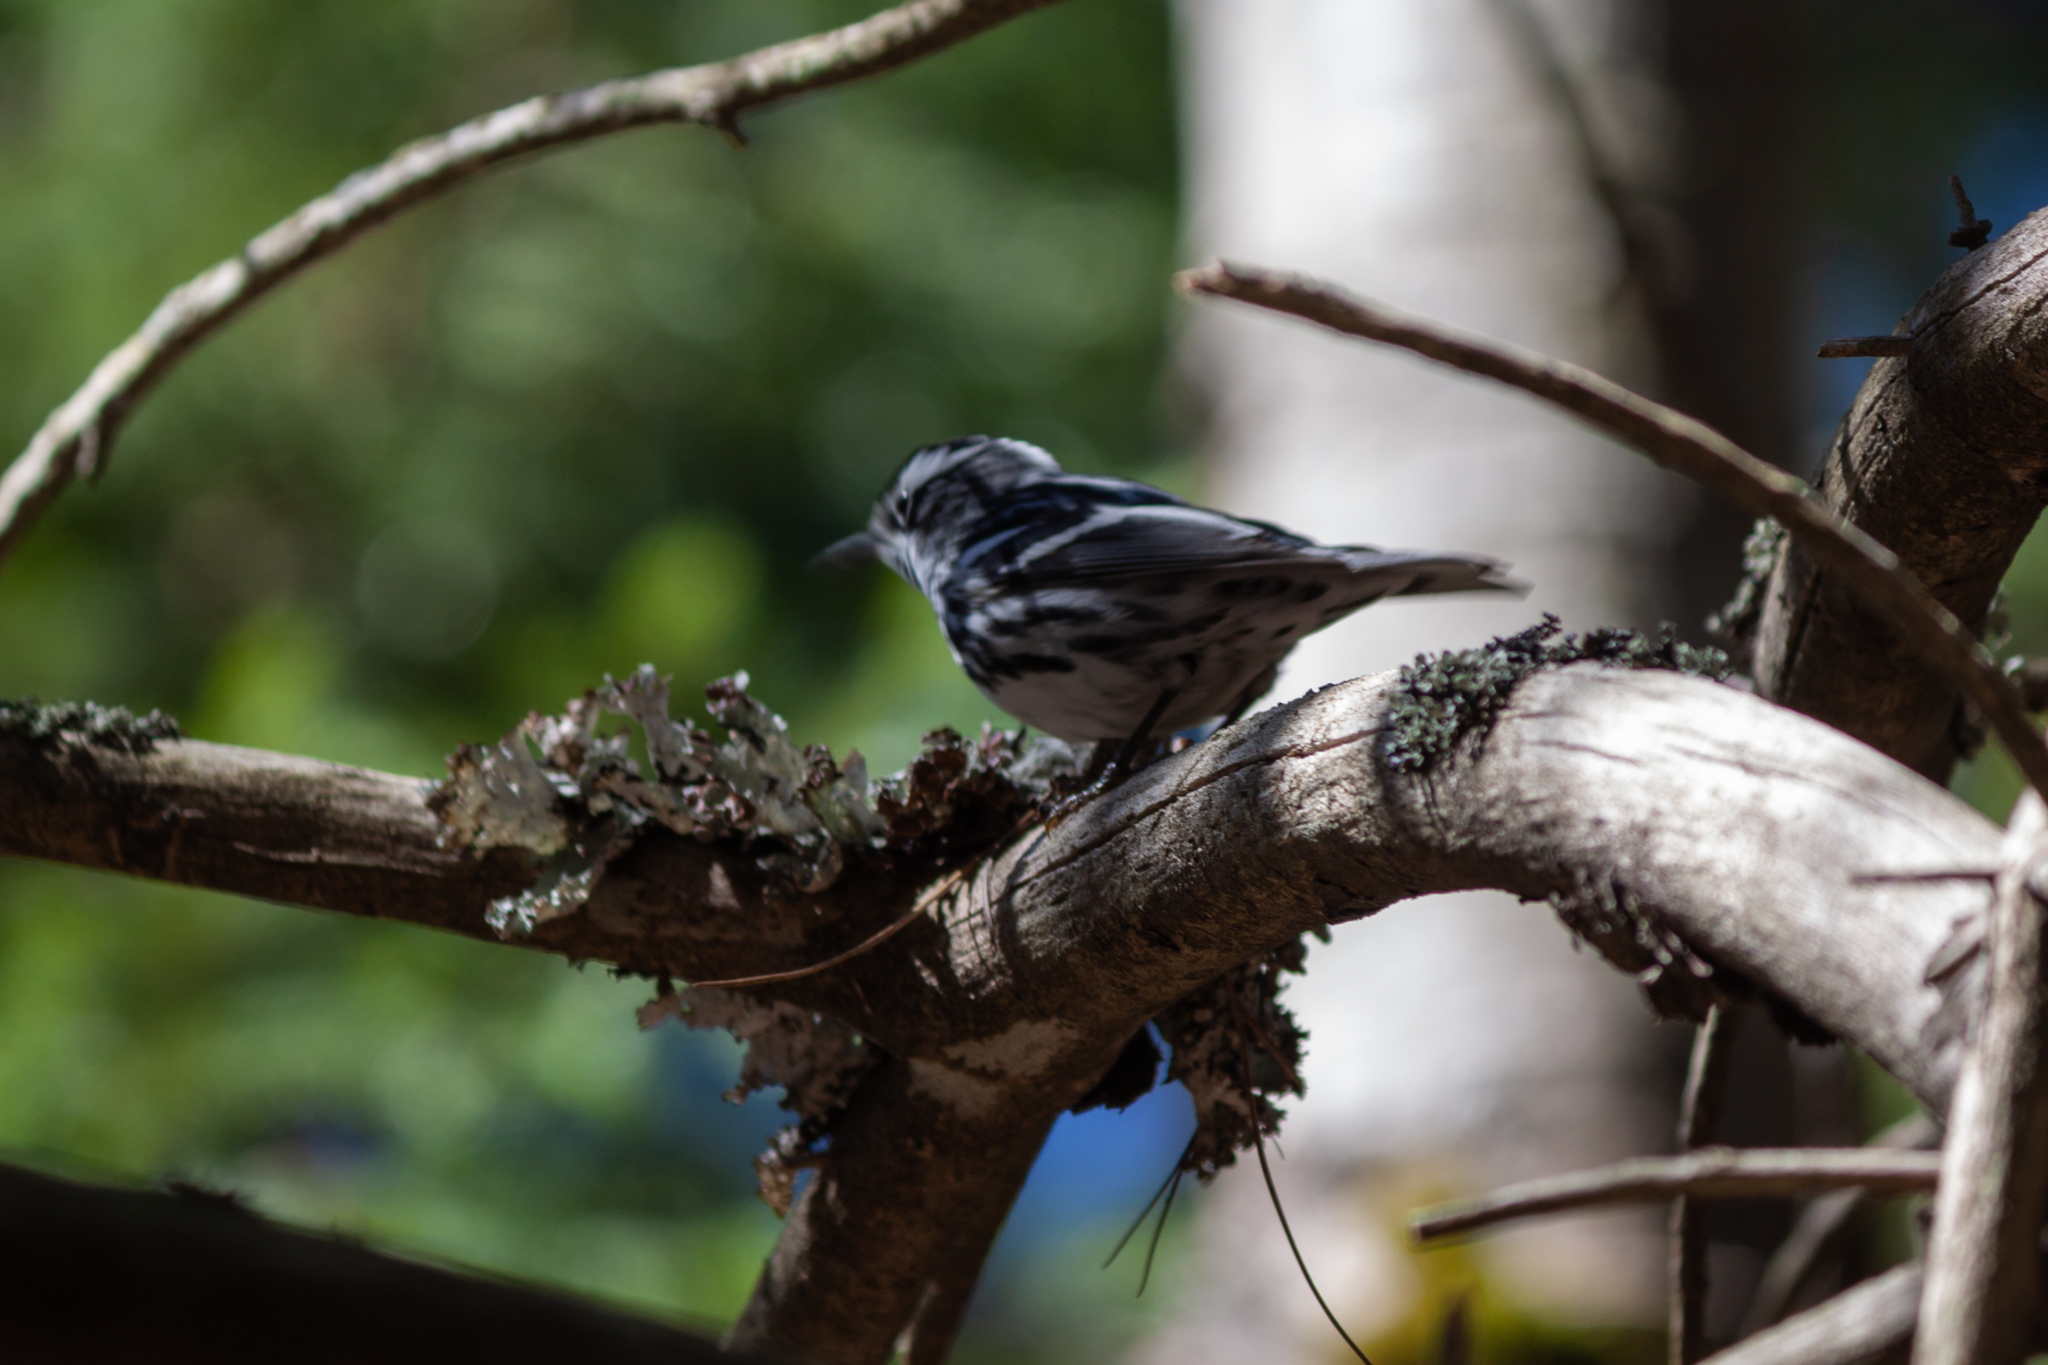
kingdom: Animalia
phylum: Chordata
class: Aves
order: Passeriformes
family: Parulidae
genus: Mniotilta
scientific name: Mniotilta varia
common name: Black-and-white warbler
